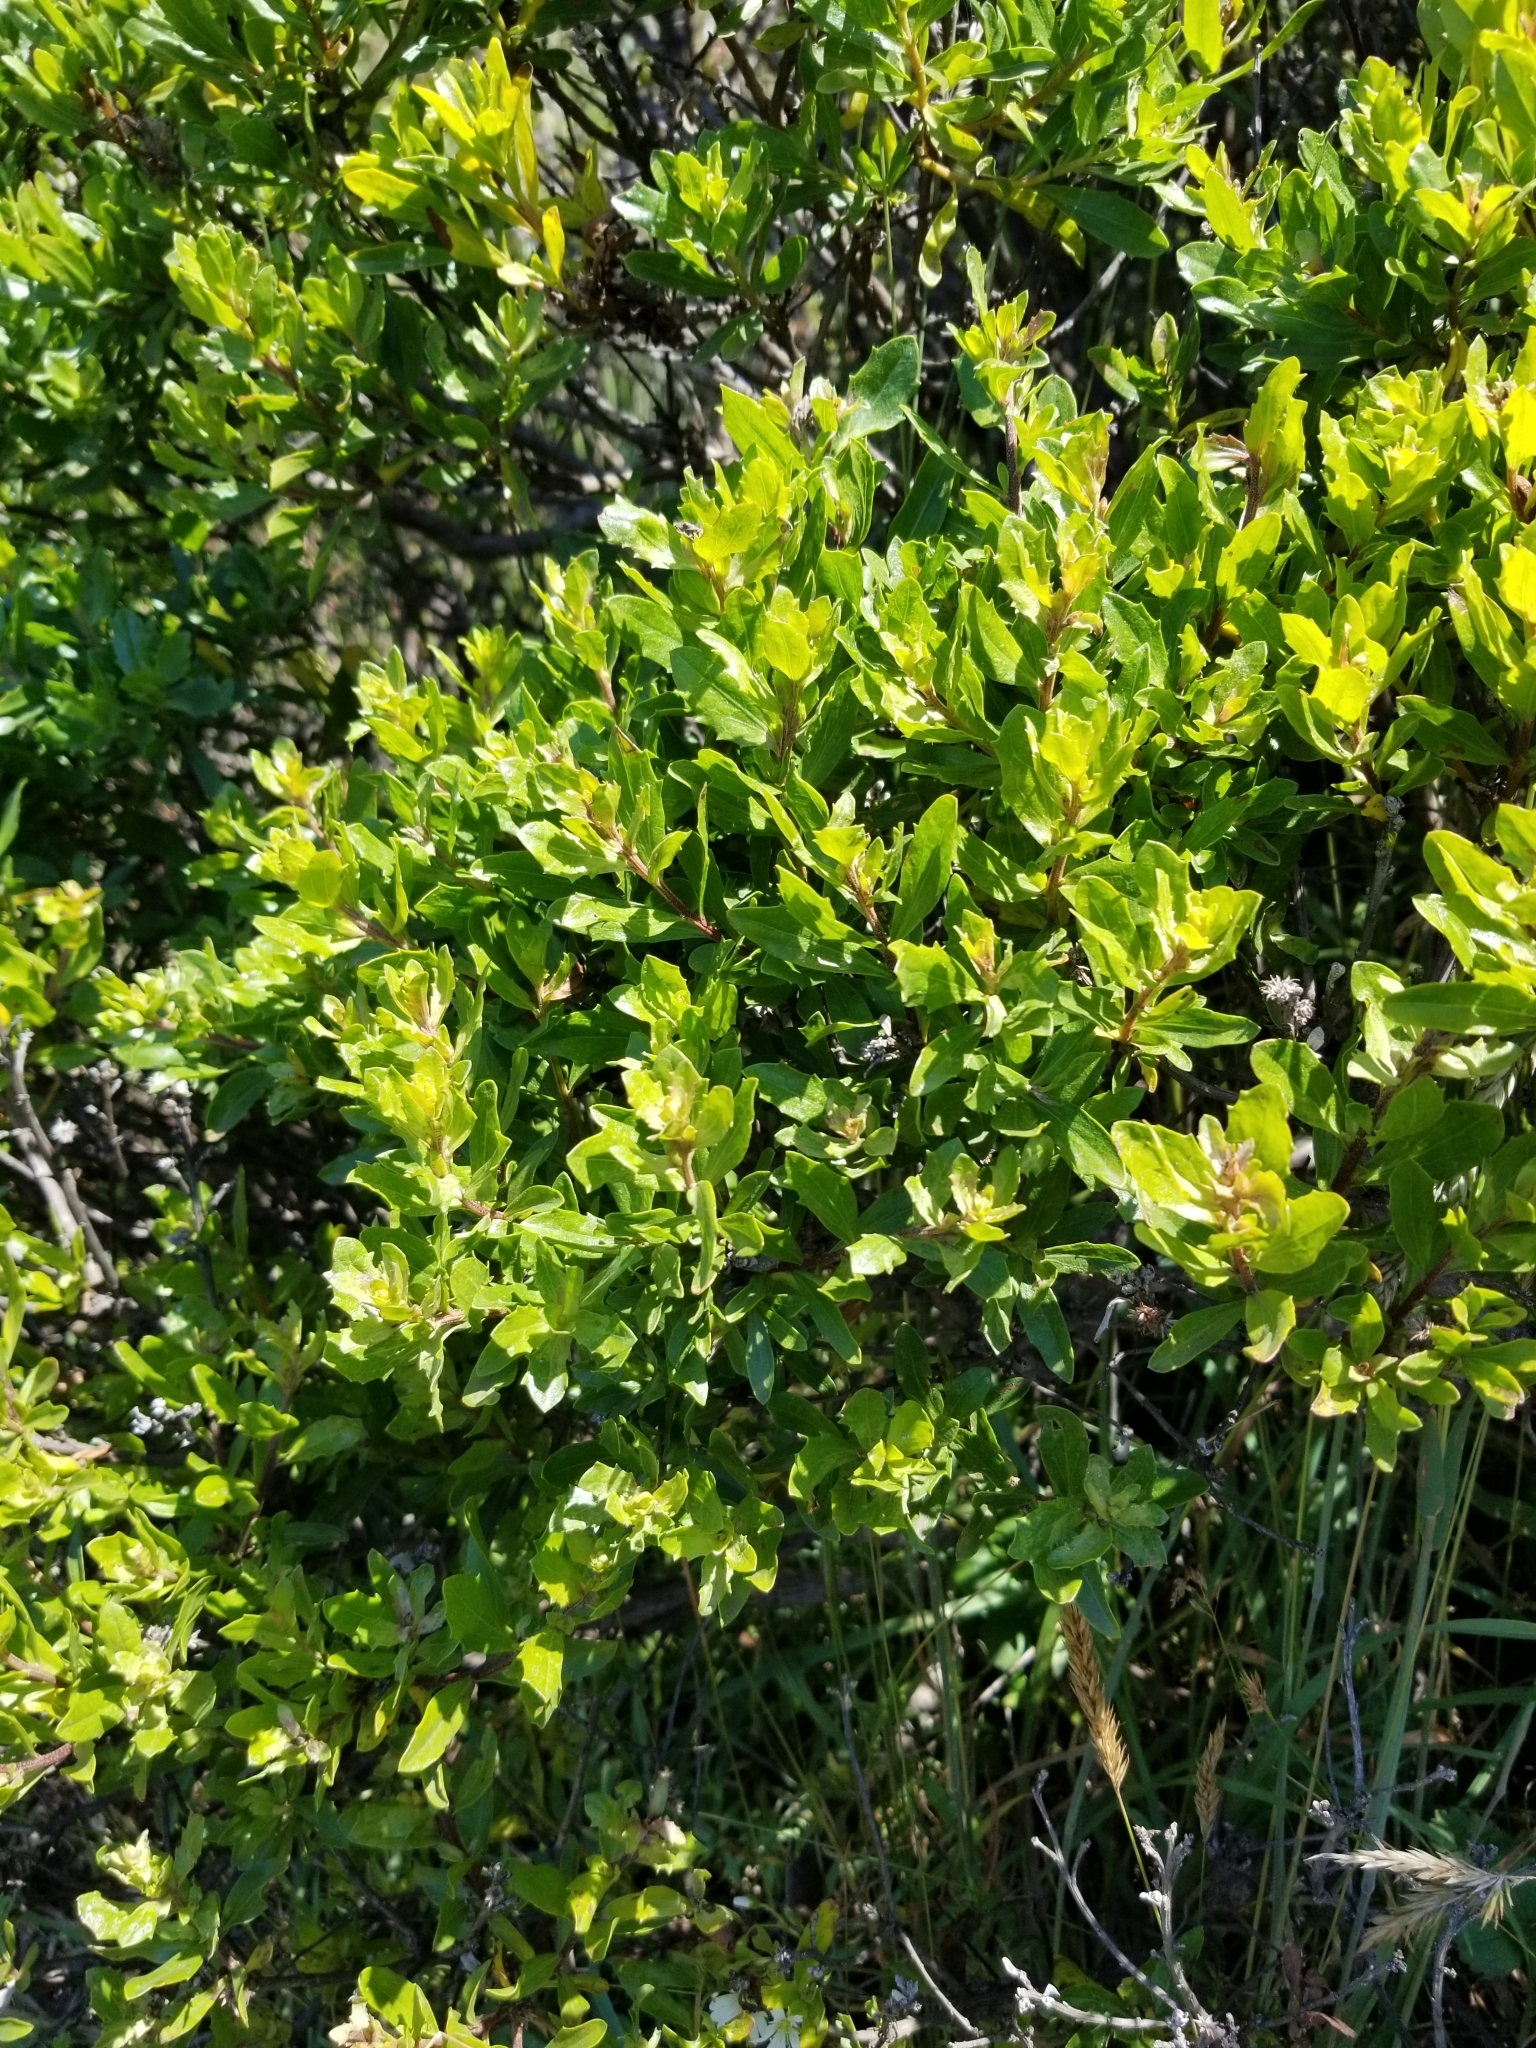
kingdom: Plantae
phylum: Tracheophyta
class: Magnoliopsida
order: Asterales
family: Asteraceae
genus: Baccharis
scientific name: Baccharis pilularis
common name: Coyotebrush
